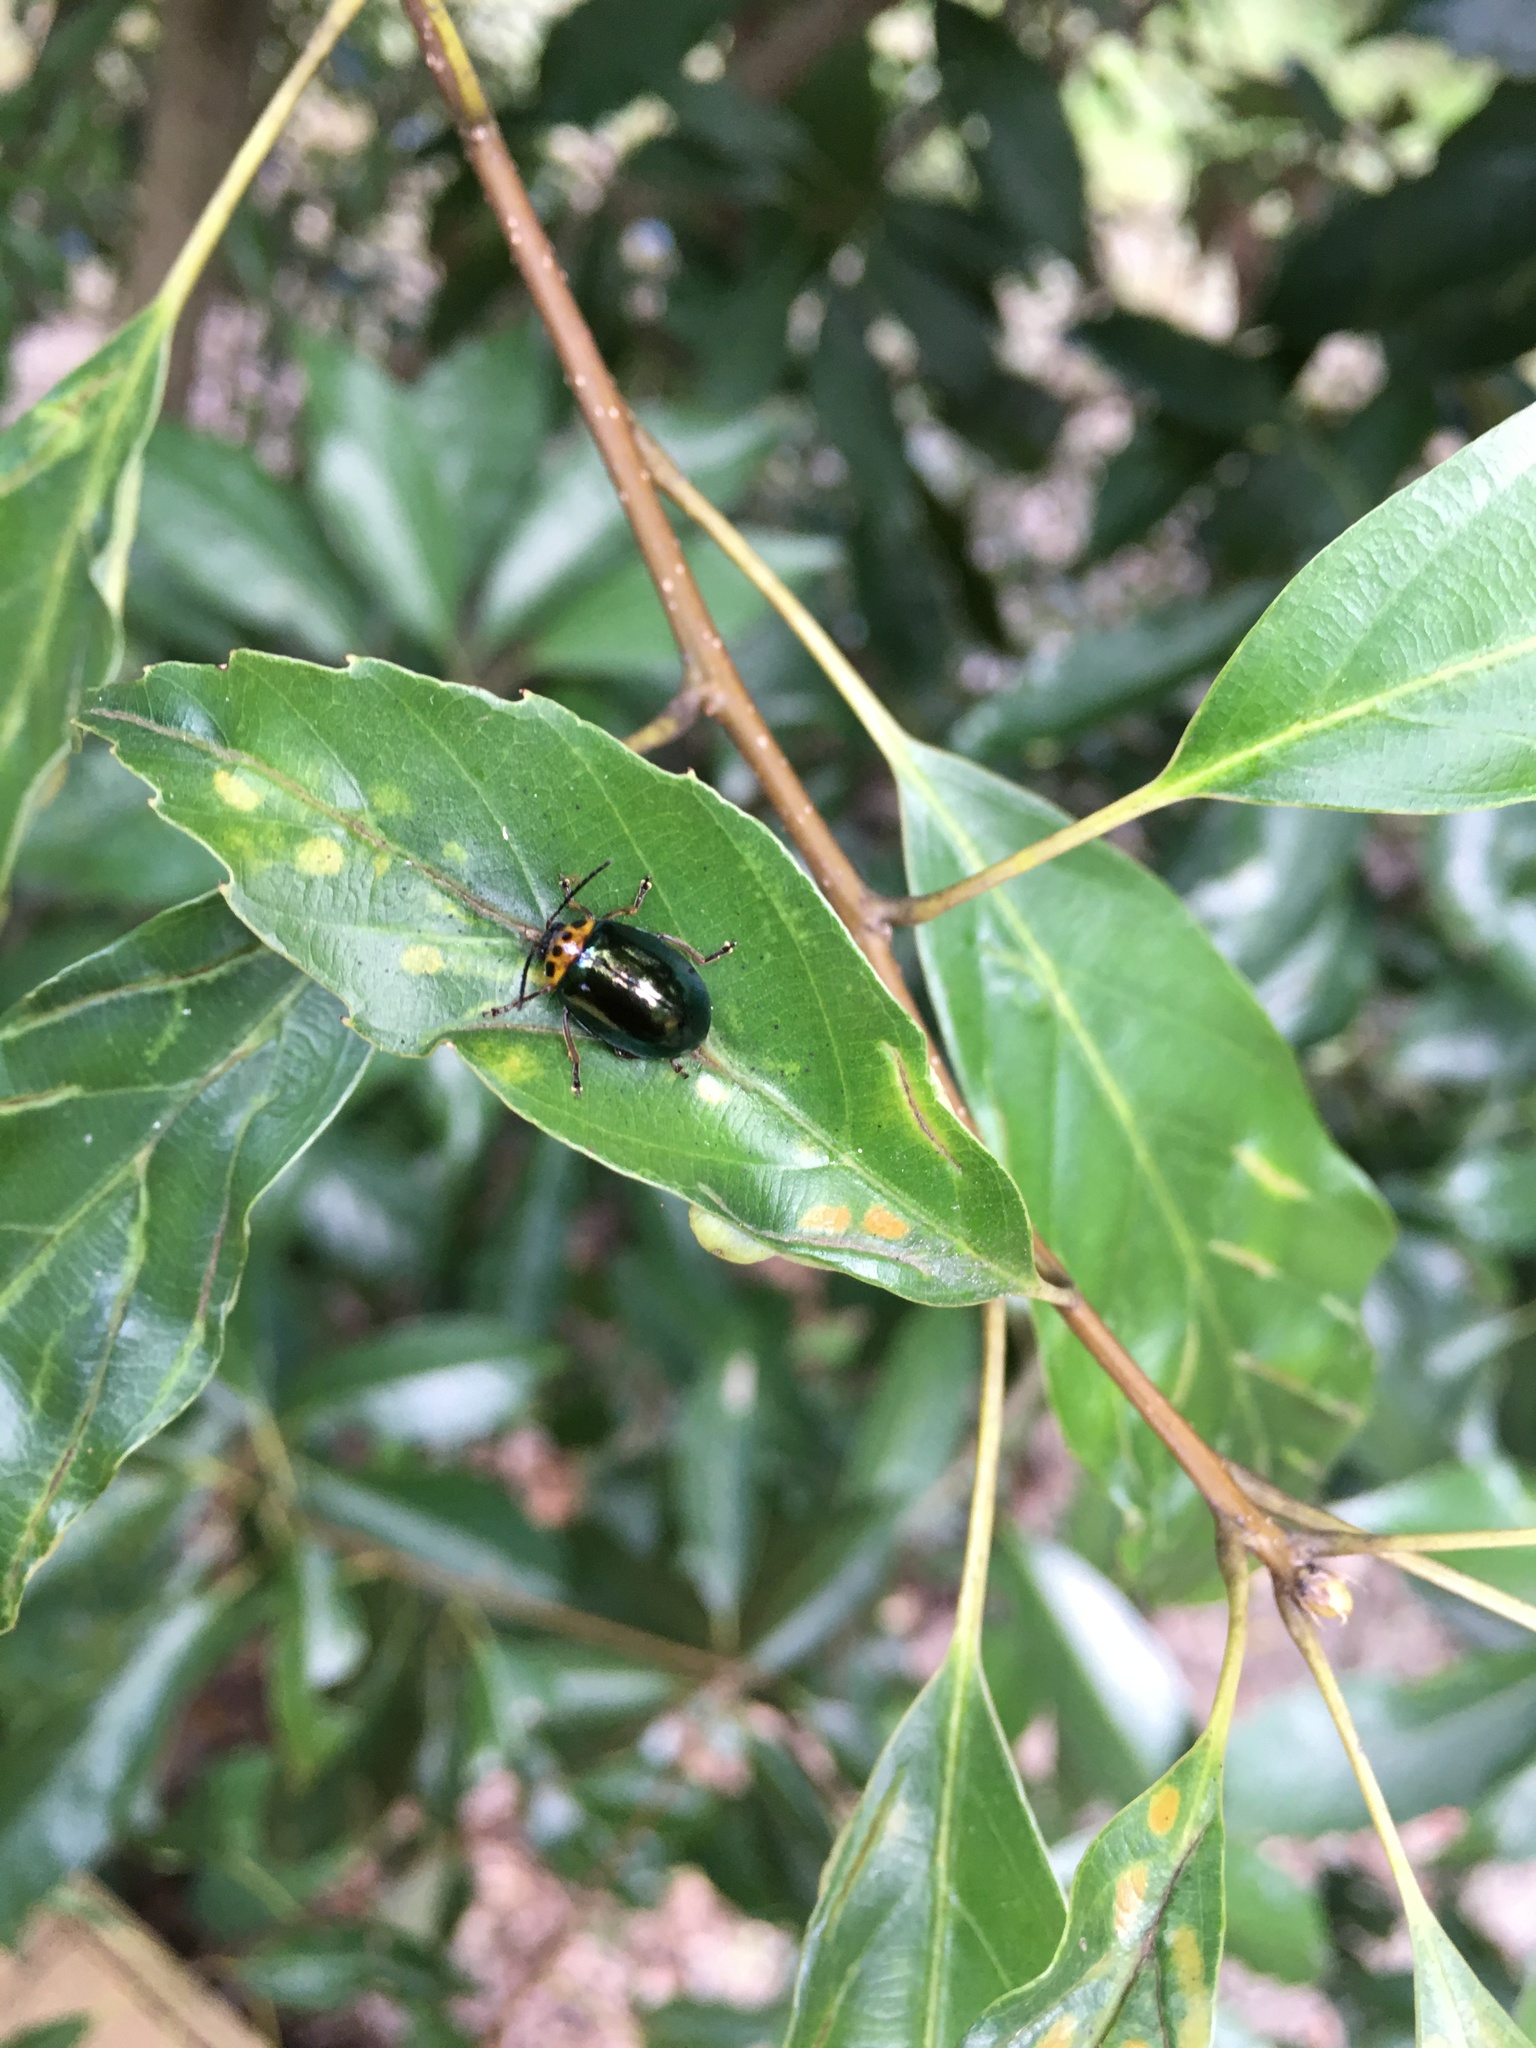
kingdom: Animalia
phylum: Arthropoda
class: Insecta
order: Coleoptera
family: Chrysomelidae
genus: Morphosphaera
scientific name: Morphosphaera chrysomeloides
